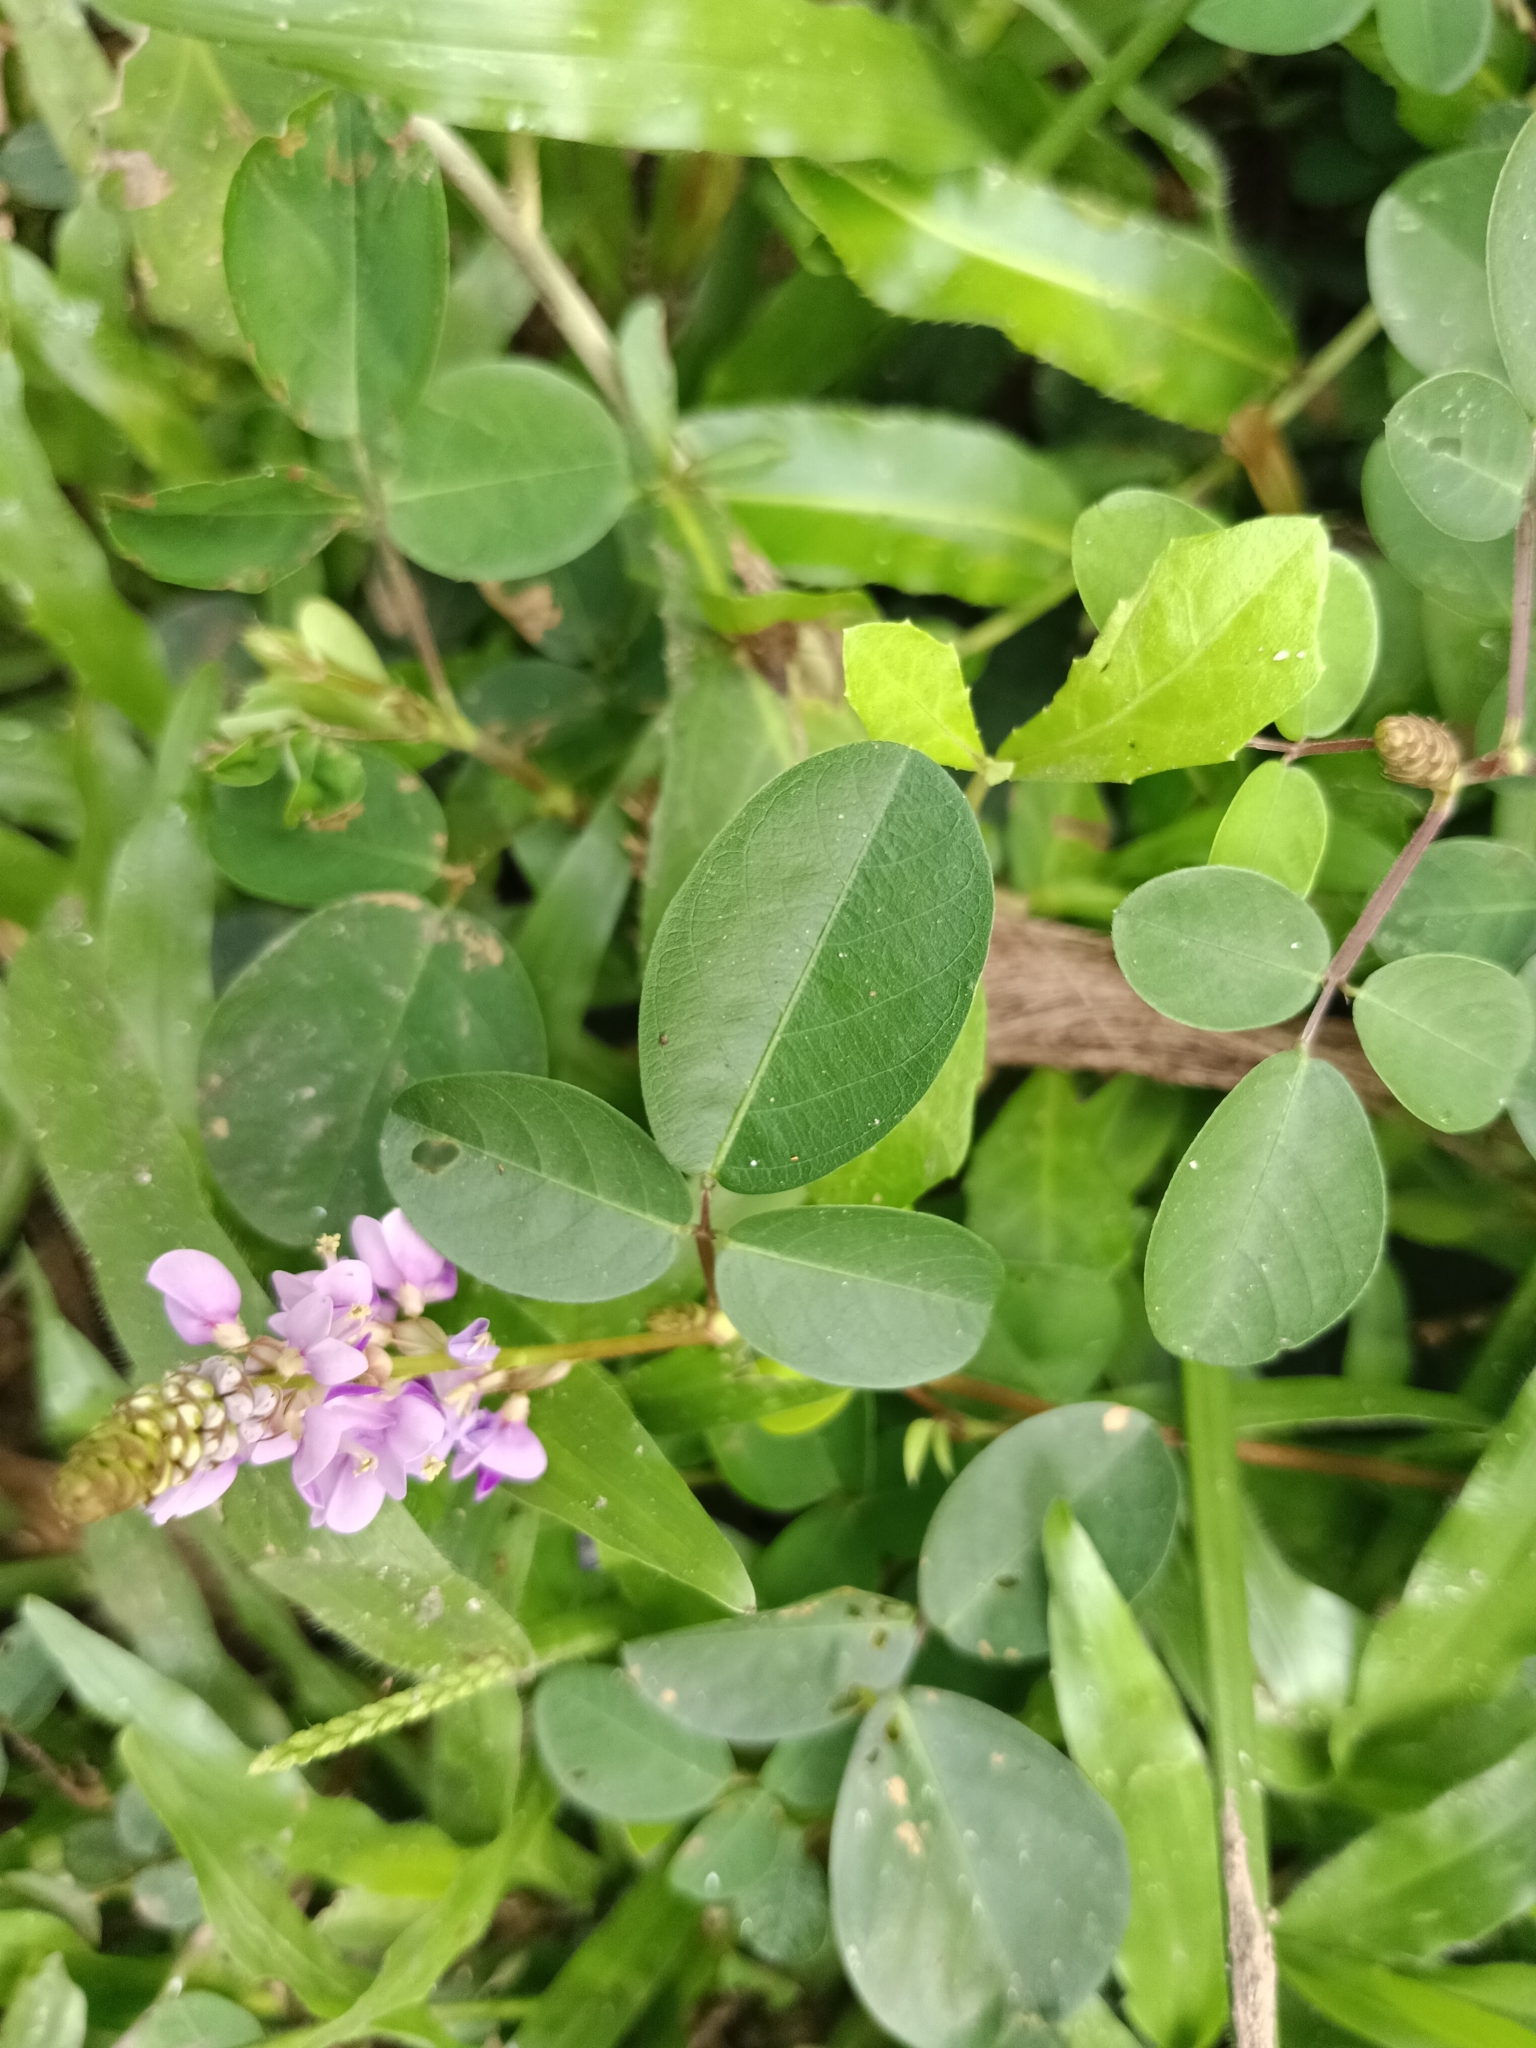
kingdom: Plantae
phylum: Tracheophyta
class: Magnoliopsida
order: Fabales
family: Fabaceae
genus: Grona
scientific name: Grona heterocarpos
